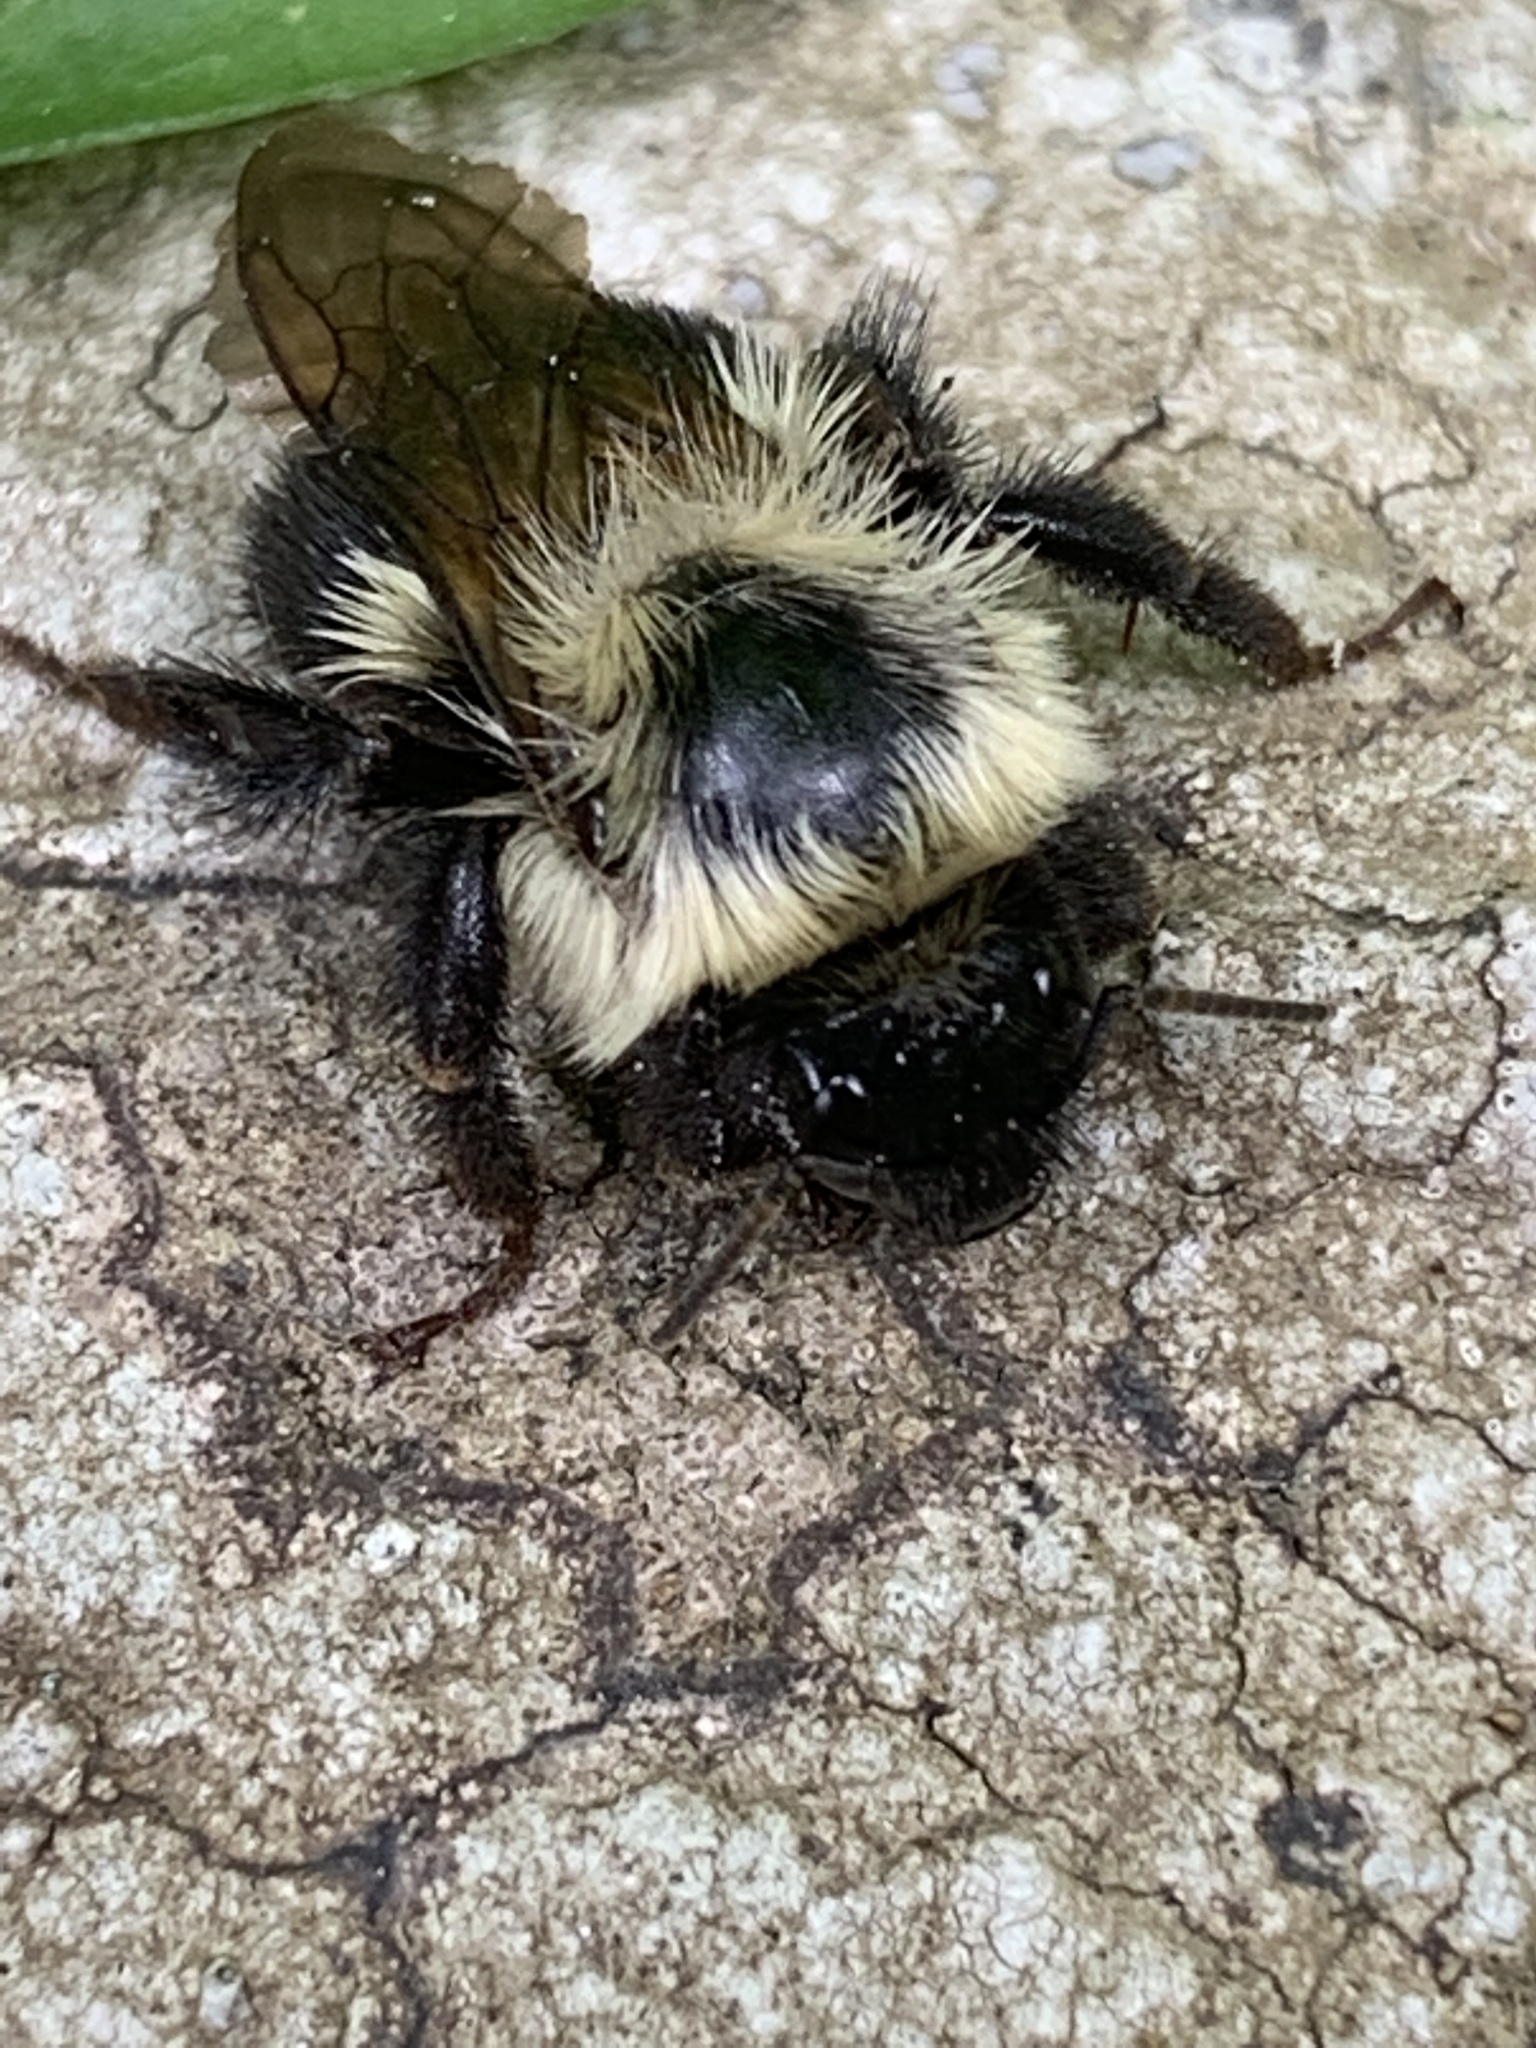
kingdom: Animalia
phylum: Arthropoda
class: Insecta
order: Hymenoptera
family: Apidae
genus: Bombus
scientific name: Bombus bimaculatus
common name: Two-spotted bumble bee
